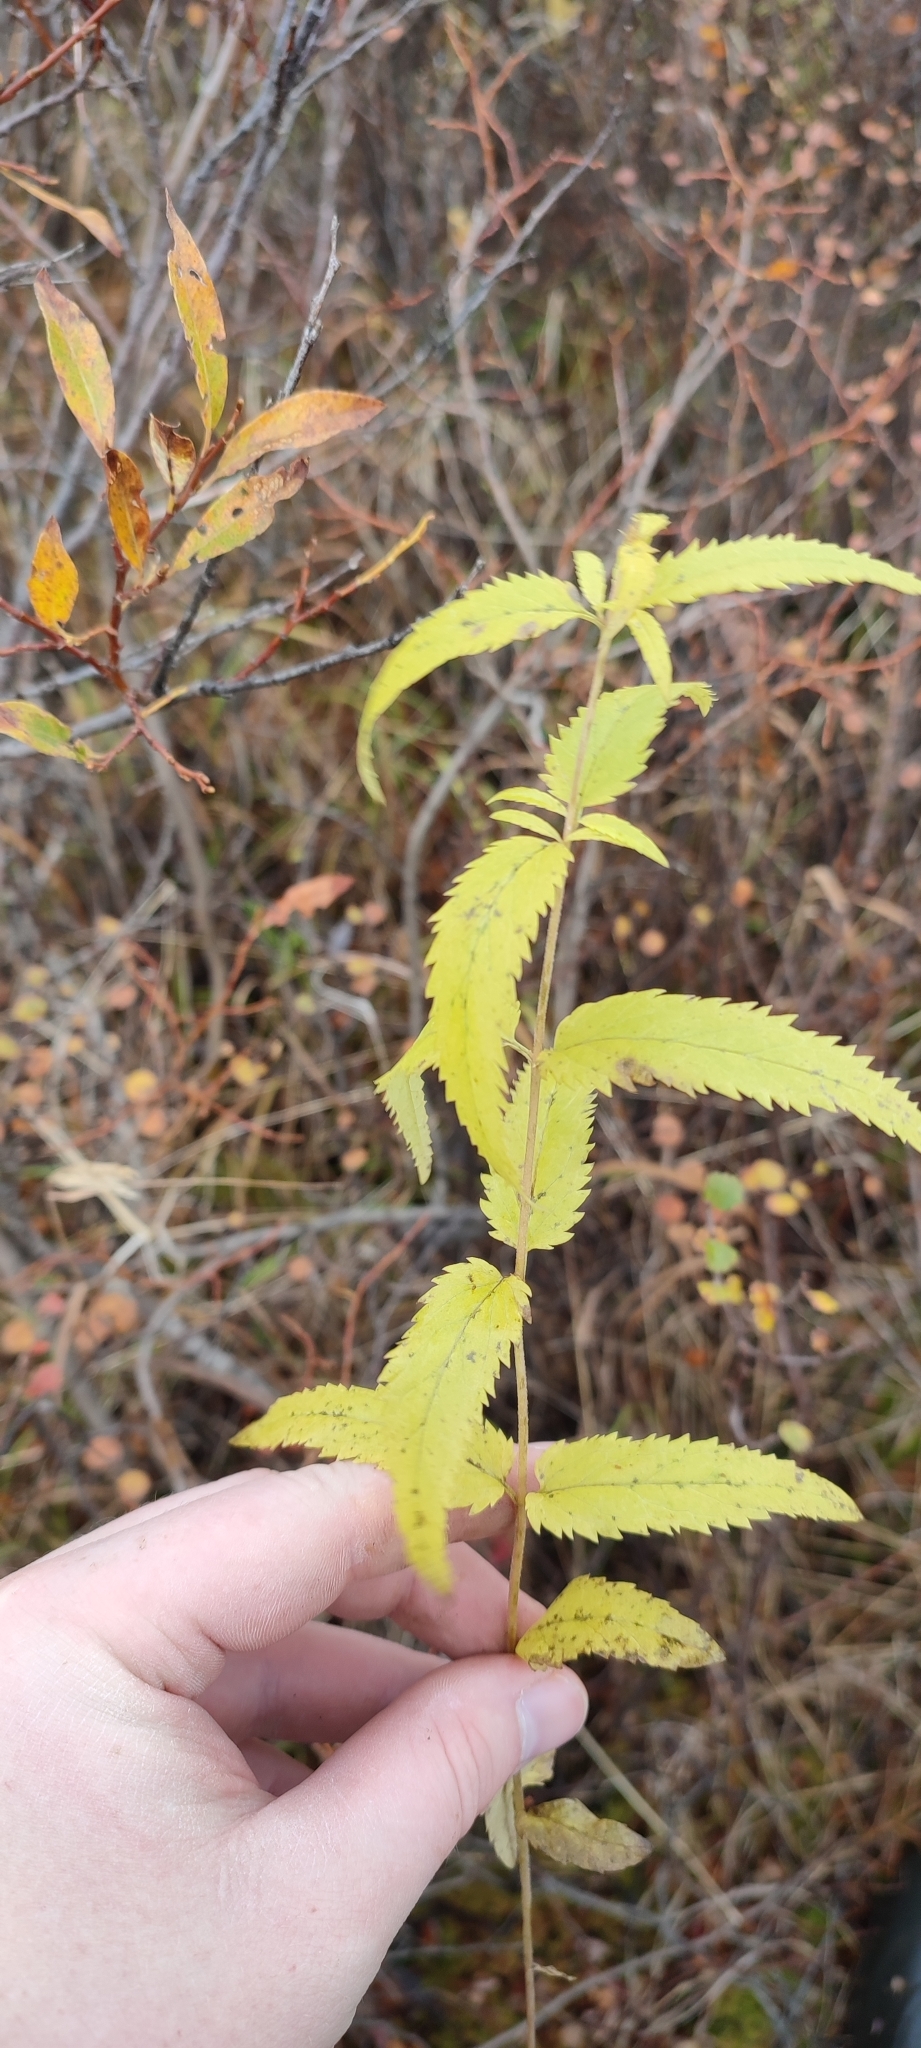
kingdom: Plantae
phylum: Tracheophyta
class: Magnoliopsida
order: Lamiales
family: Plantaginaceae
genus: Veronica
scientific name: Veronica longifolia
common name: Garden speedwell
